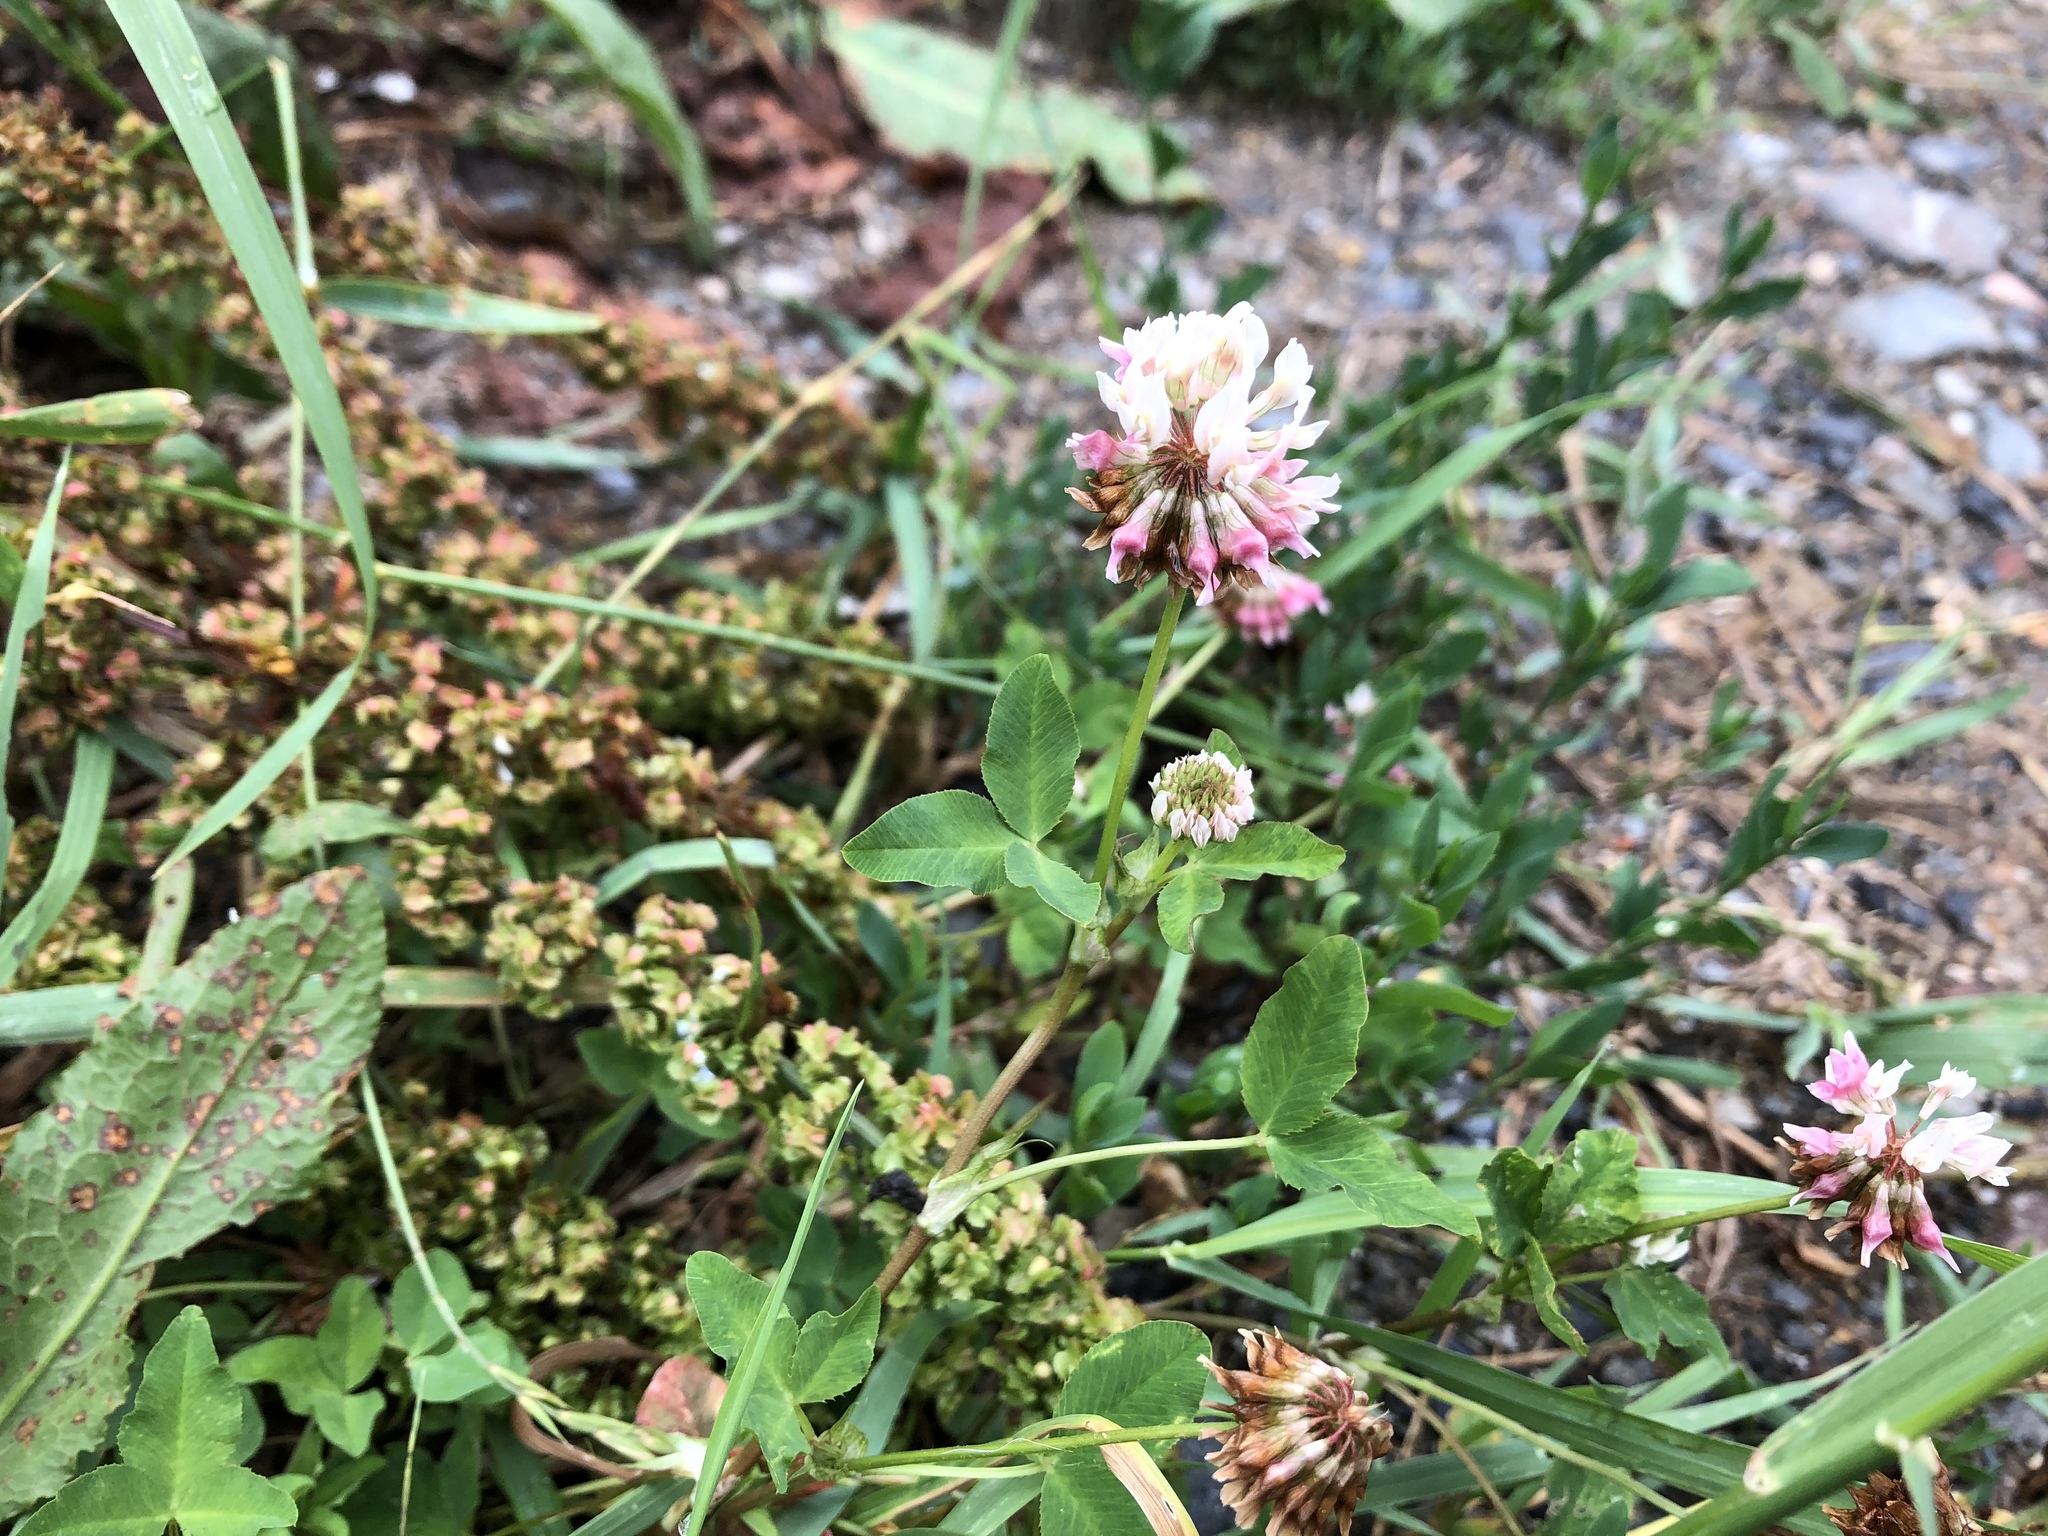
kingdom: Plantae
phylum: Tracheophyta
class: Magnoliopsida
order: Fabales
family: Fabaceae
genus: Trifolium
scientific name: Trifolium hybridum
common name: Alsike clover
